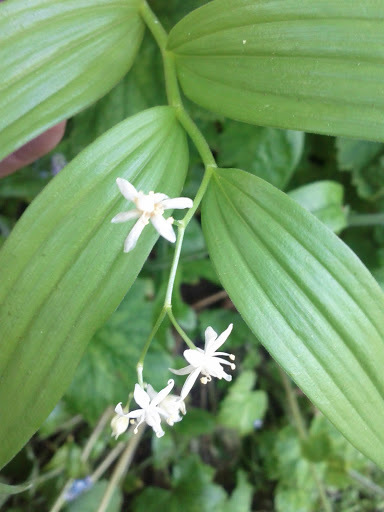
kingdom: Plantae
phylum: Tracheophyta
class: Liliopsida
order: Asparagales
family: Asparagaceae
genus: Maianthemum
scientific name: Maianthemum stellatum
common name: Little false solomon's seal
